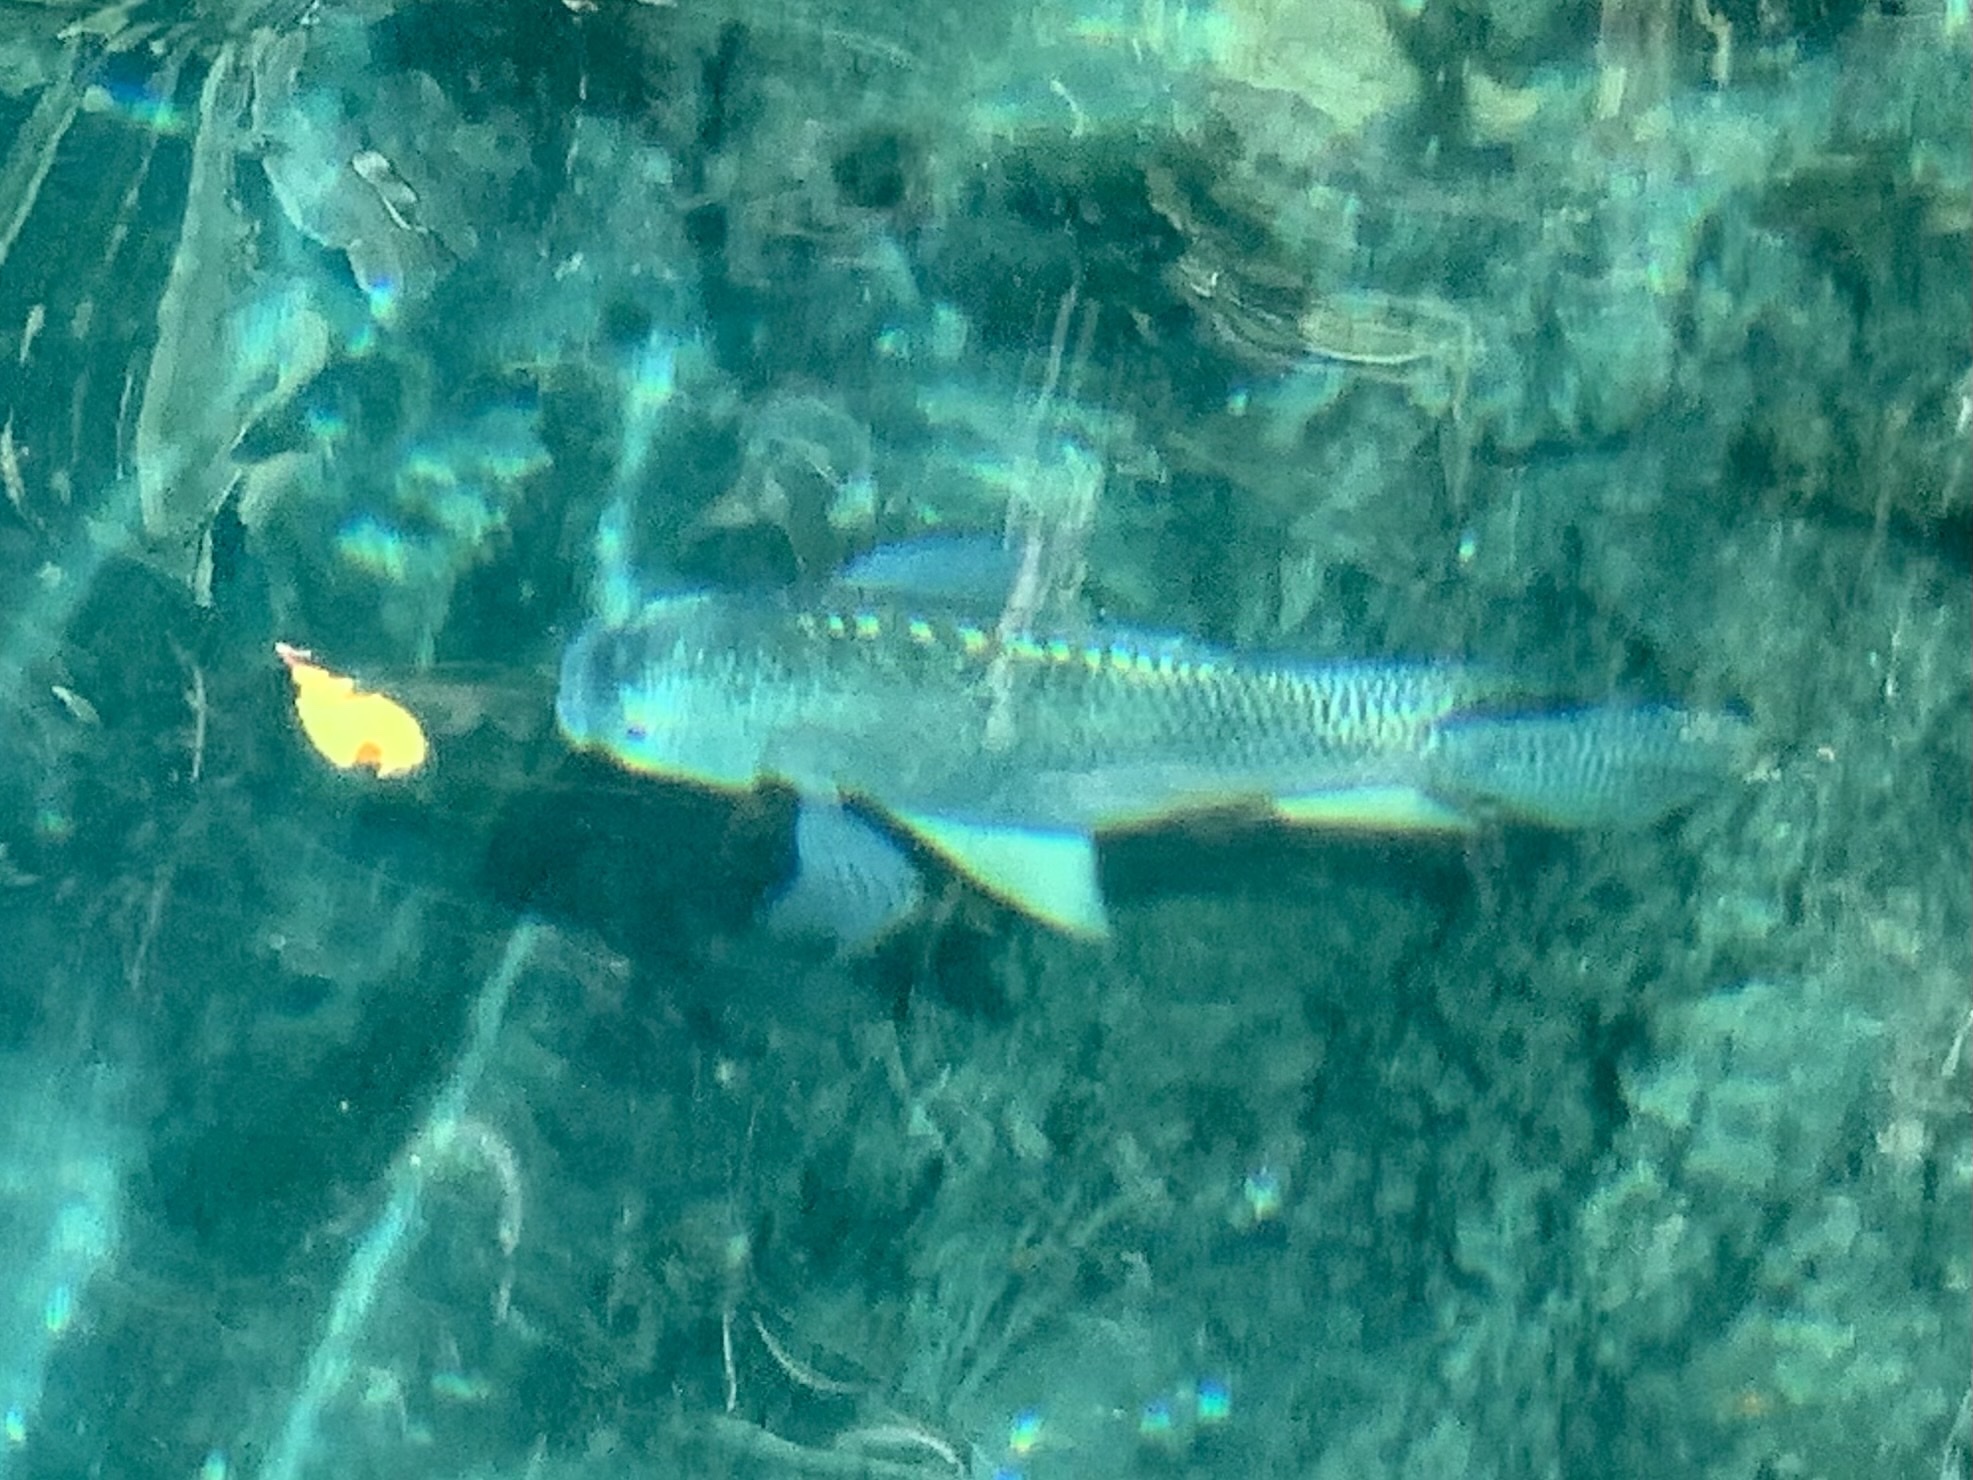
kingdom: Animalia
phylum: Chordata
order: Perciformes
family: Cichlidae
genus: Oreochromis
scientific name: Oreochromis aureus
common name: Blue tilapia
